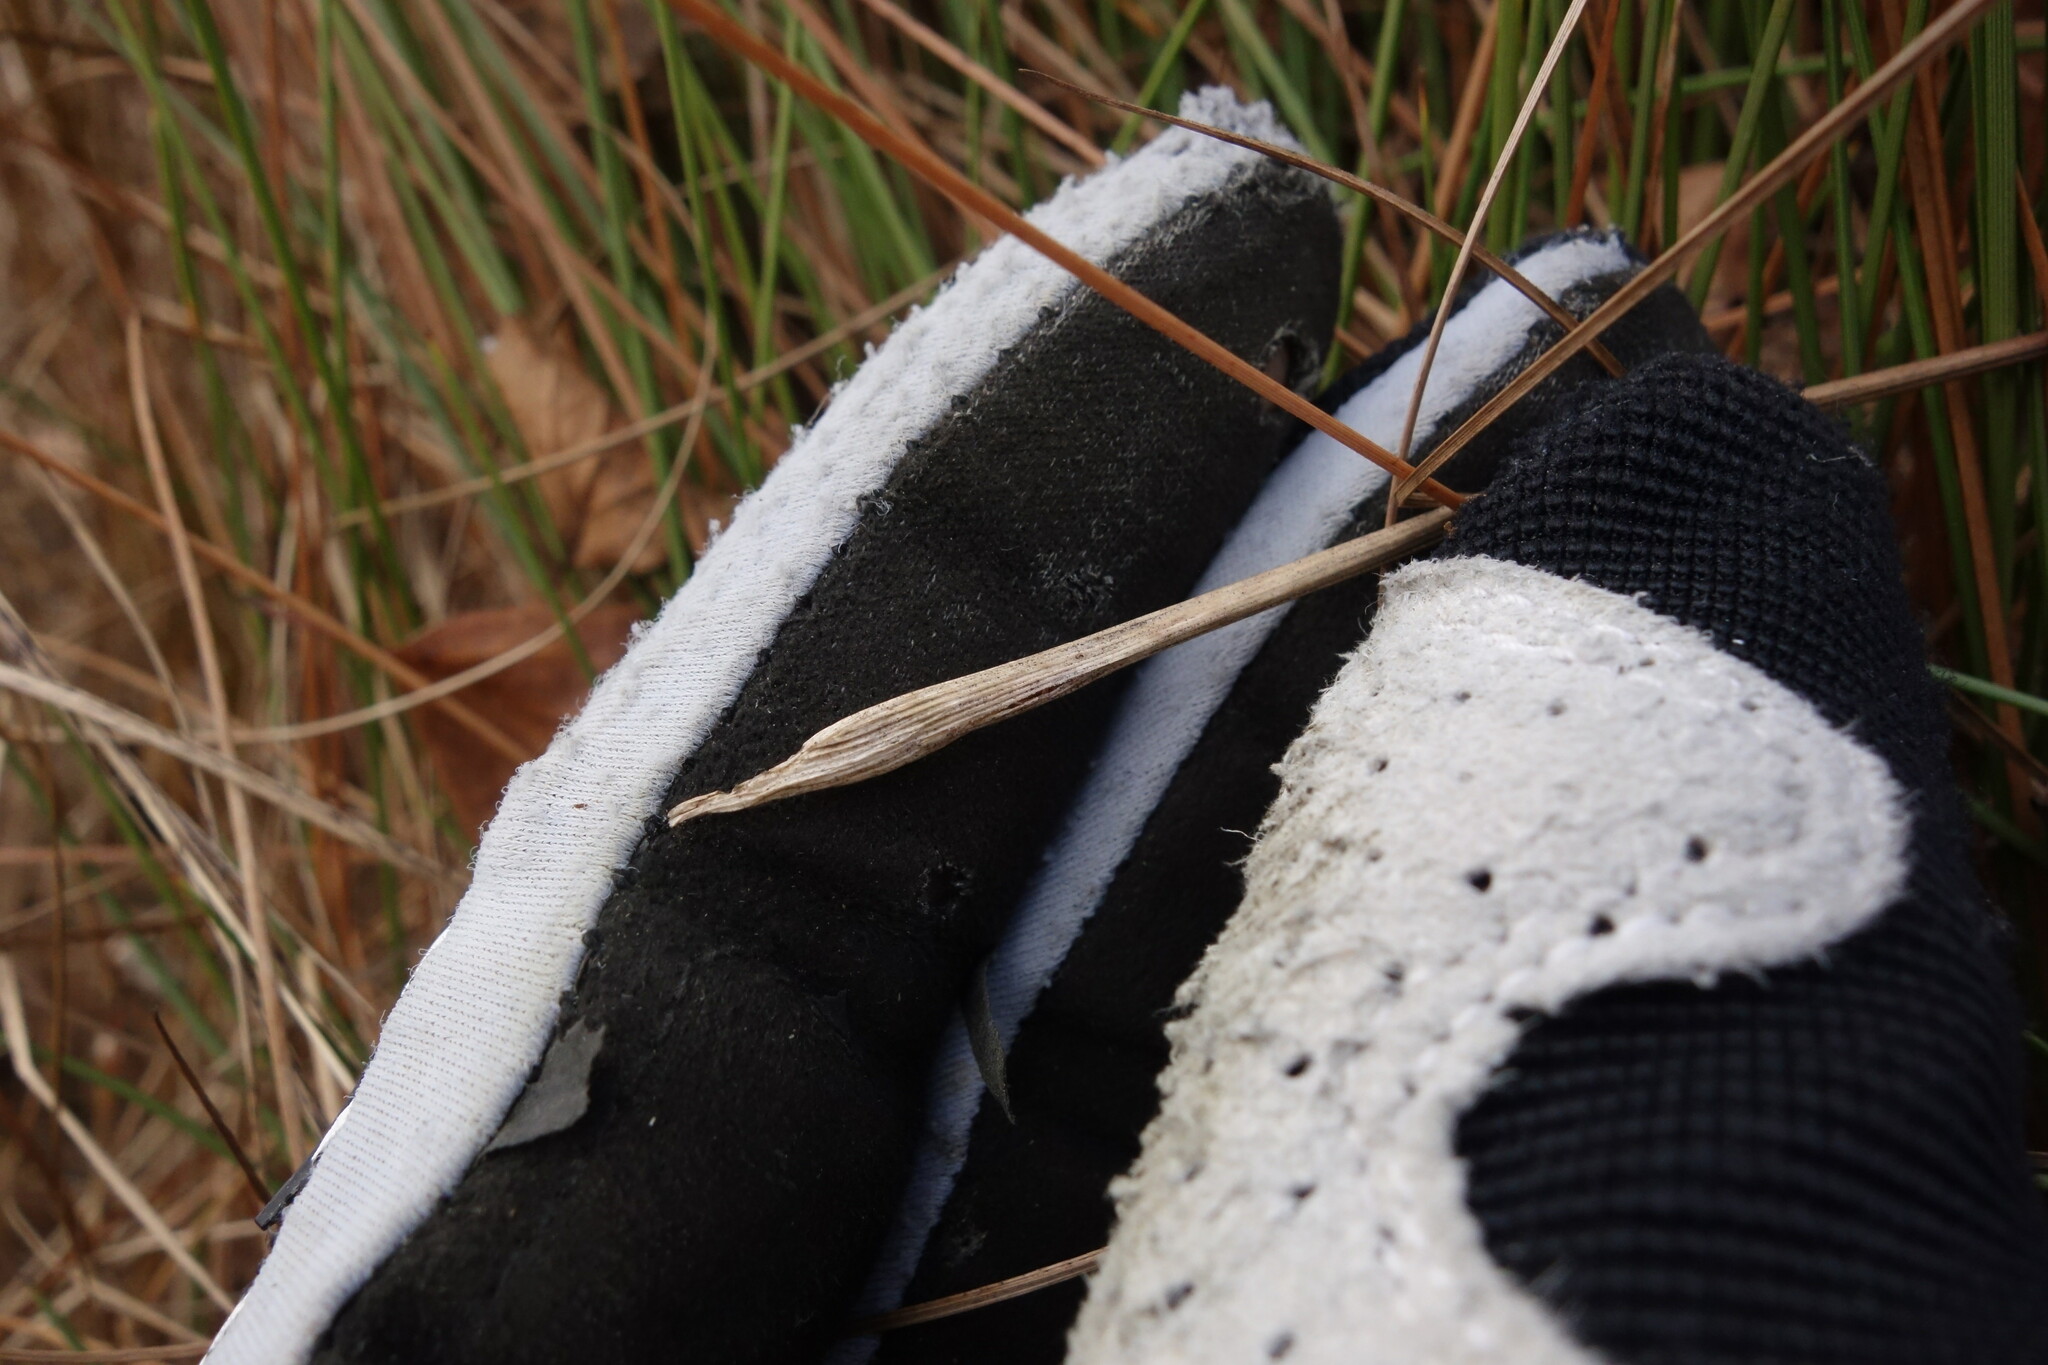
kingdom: Plantae
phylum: Tracheophyta
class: Liliopsida
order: Poales
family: Cyperaceae
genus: Eriophorum
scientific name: Eriophorum vaginatum
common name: Hare's-tail cottongrass
